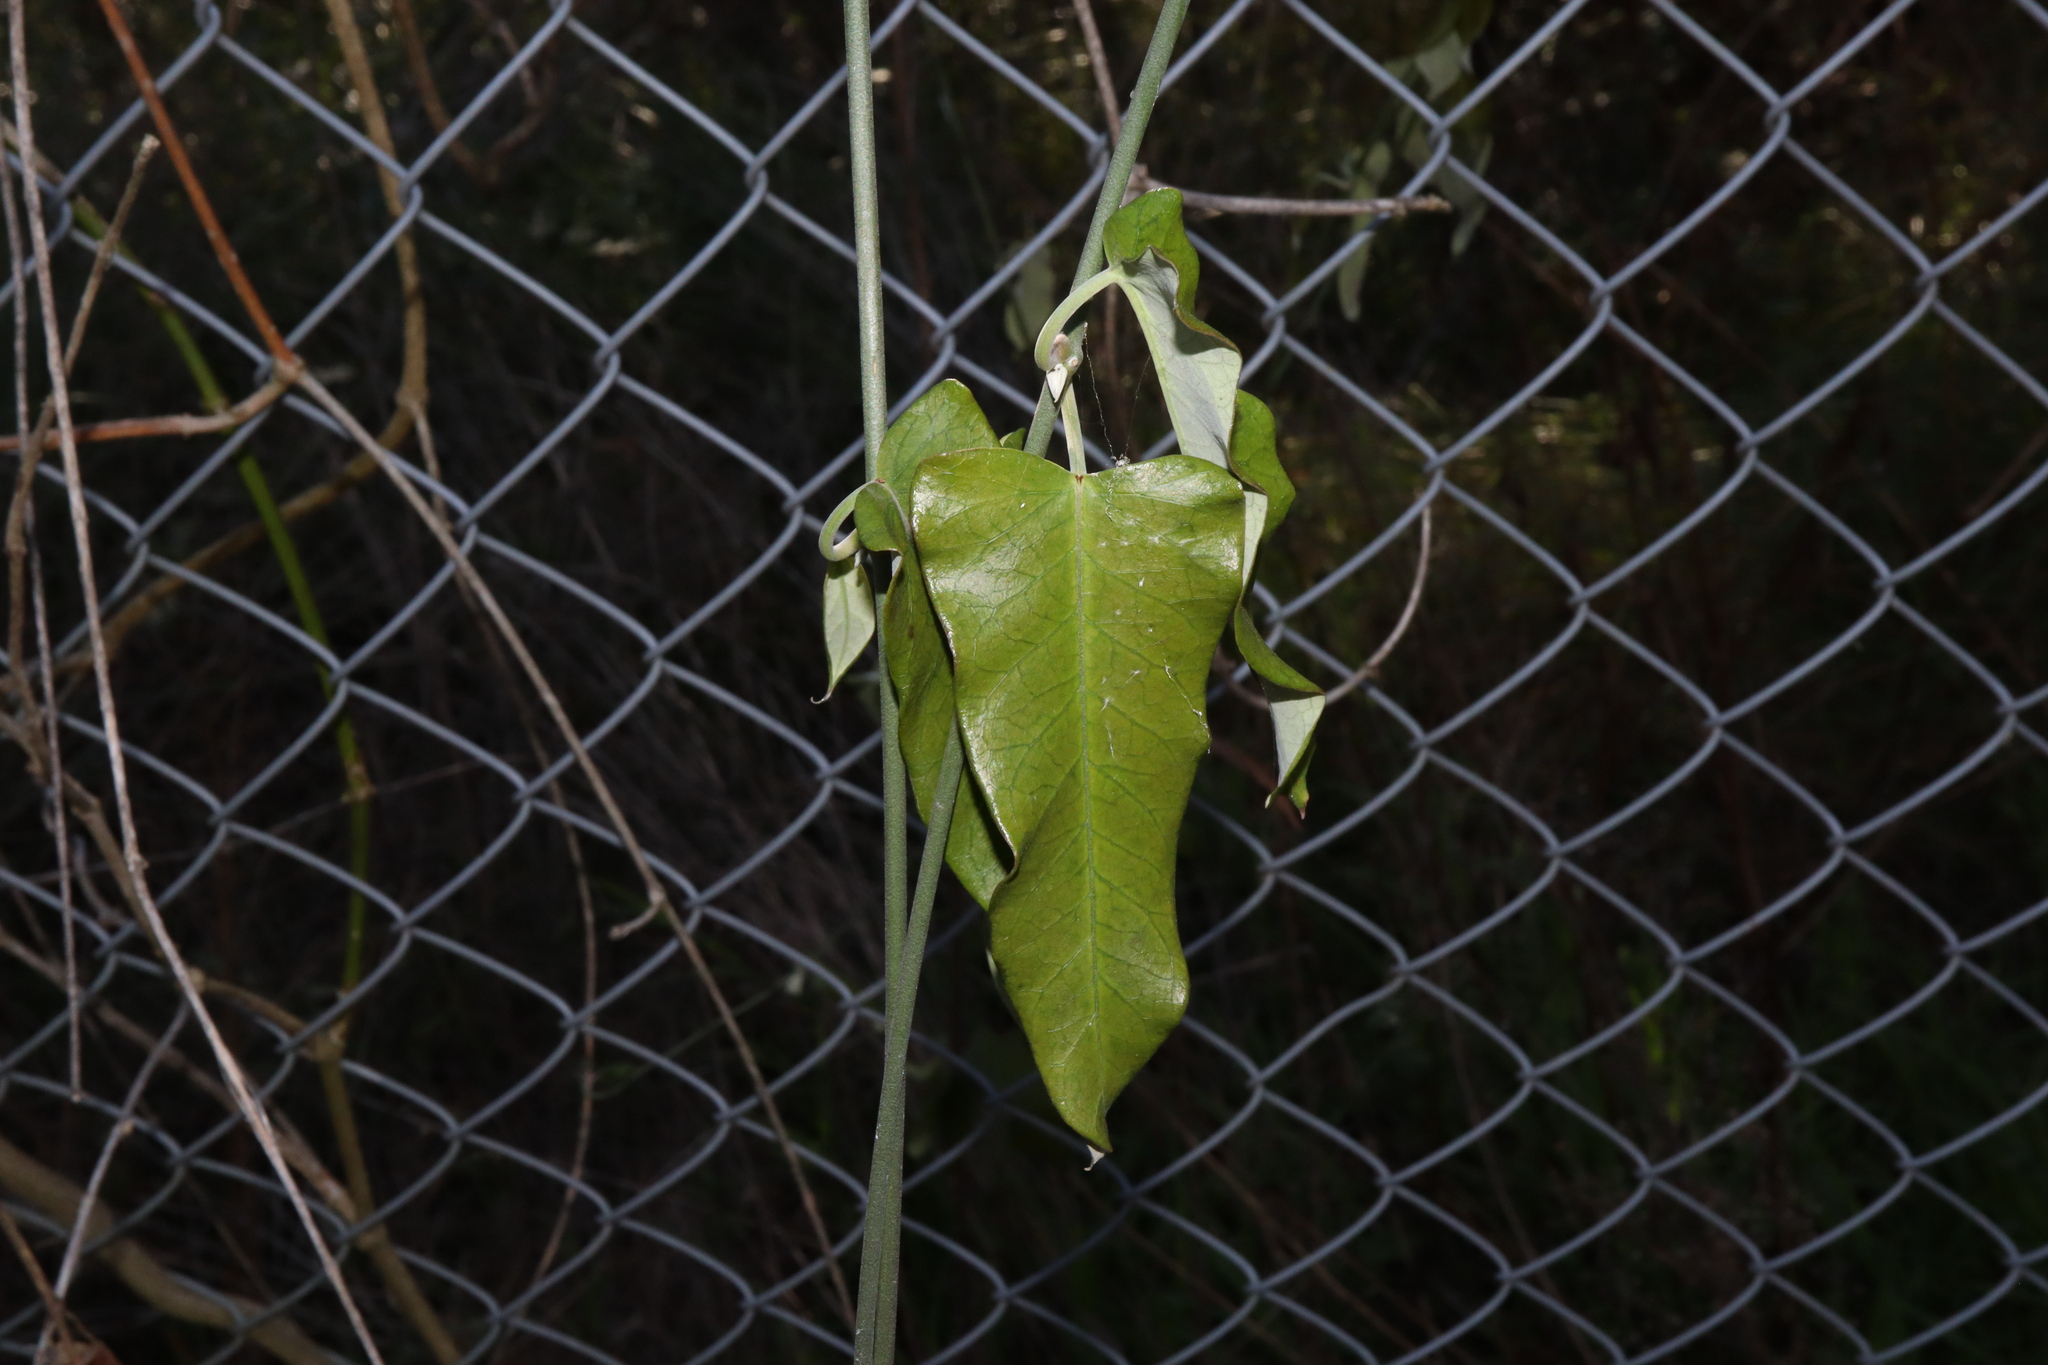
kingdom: Plantae
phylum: Tracheophyta
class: Magnoliopsida
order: Gentianales
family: Apocynaceae
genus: Araujia
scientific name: Araujia sericifera
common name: White bladderflower
